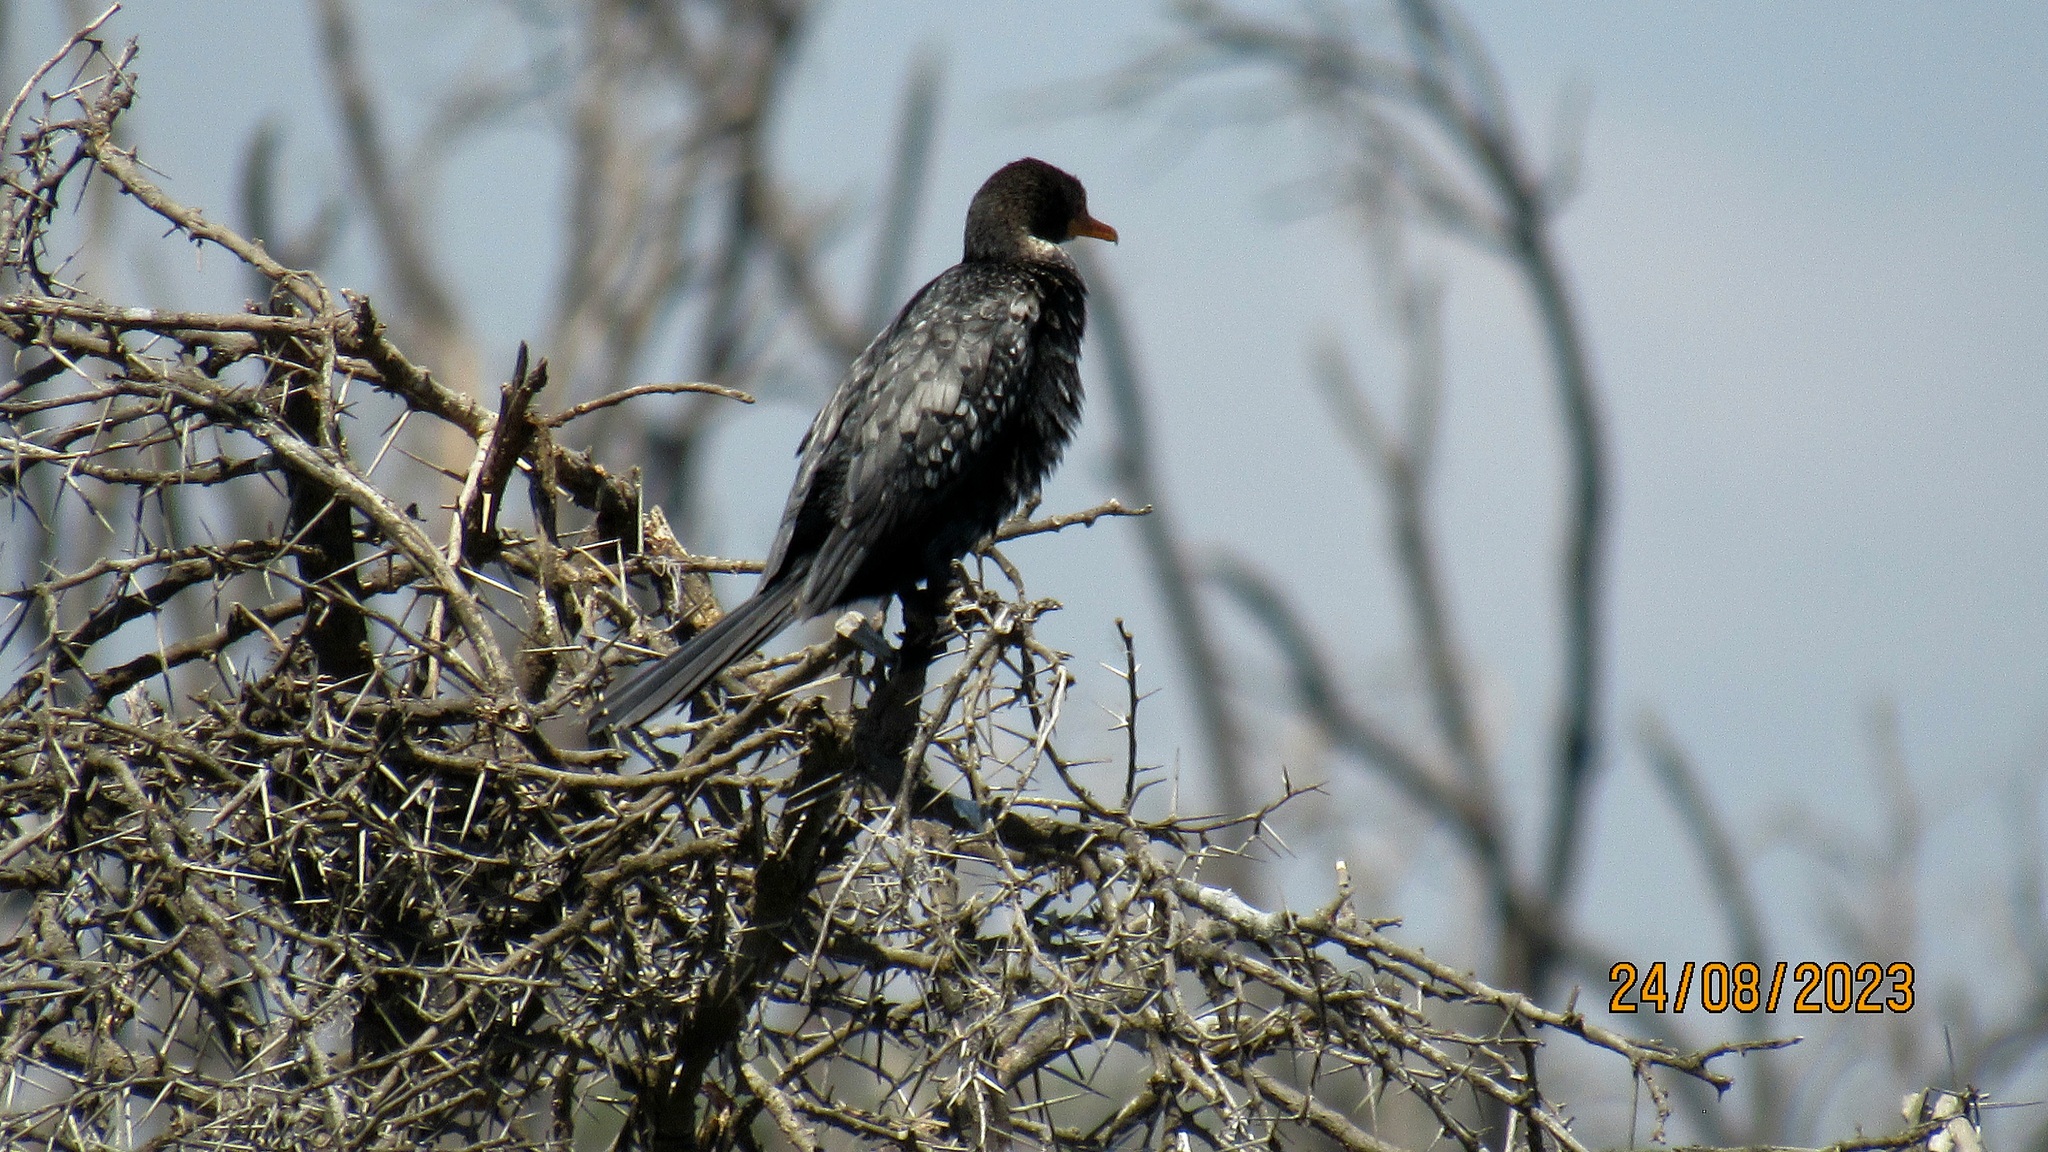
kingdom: Animalia
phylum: Chordata
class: Aves
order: Suliformes
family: Phalacrocoracidae
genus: Microcarbo
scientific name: Microcarbo africanus
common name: Long-tailed cormorant
